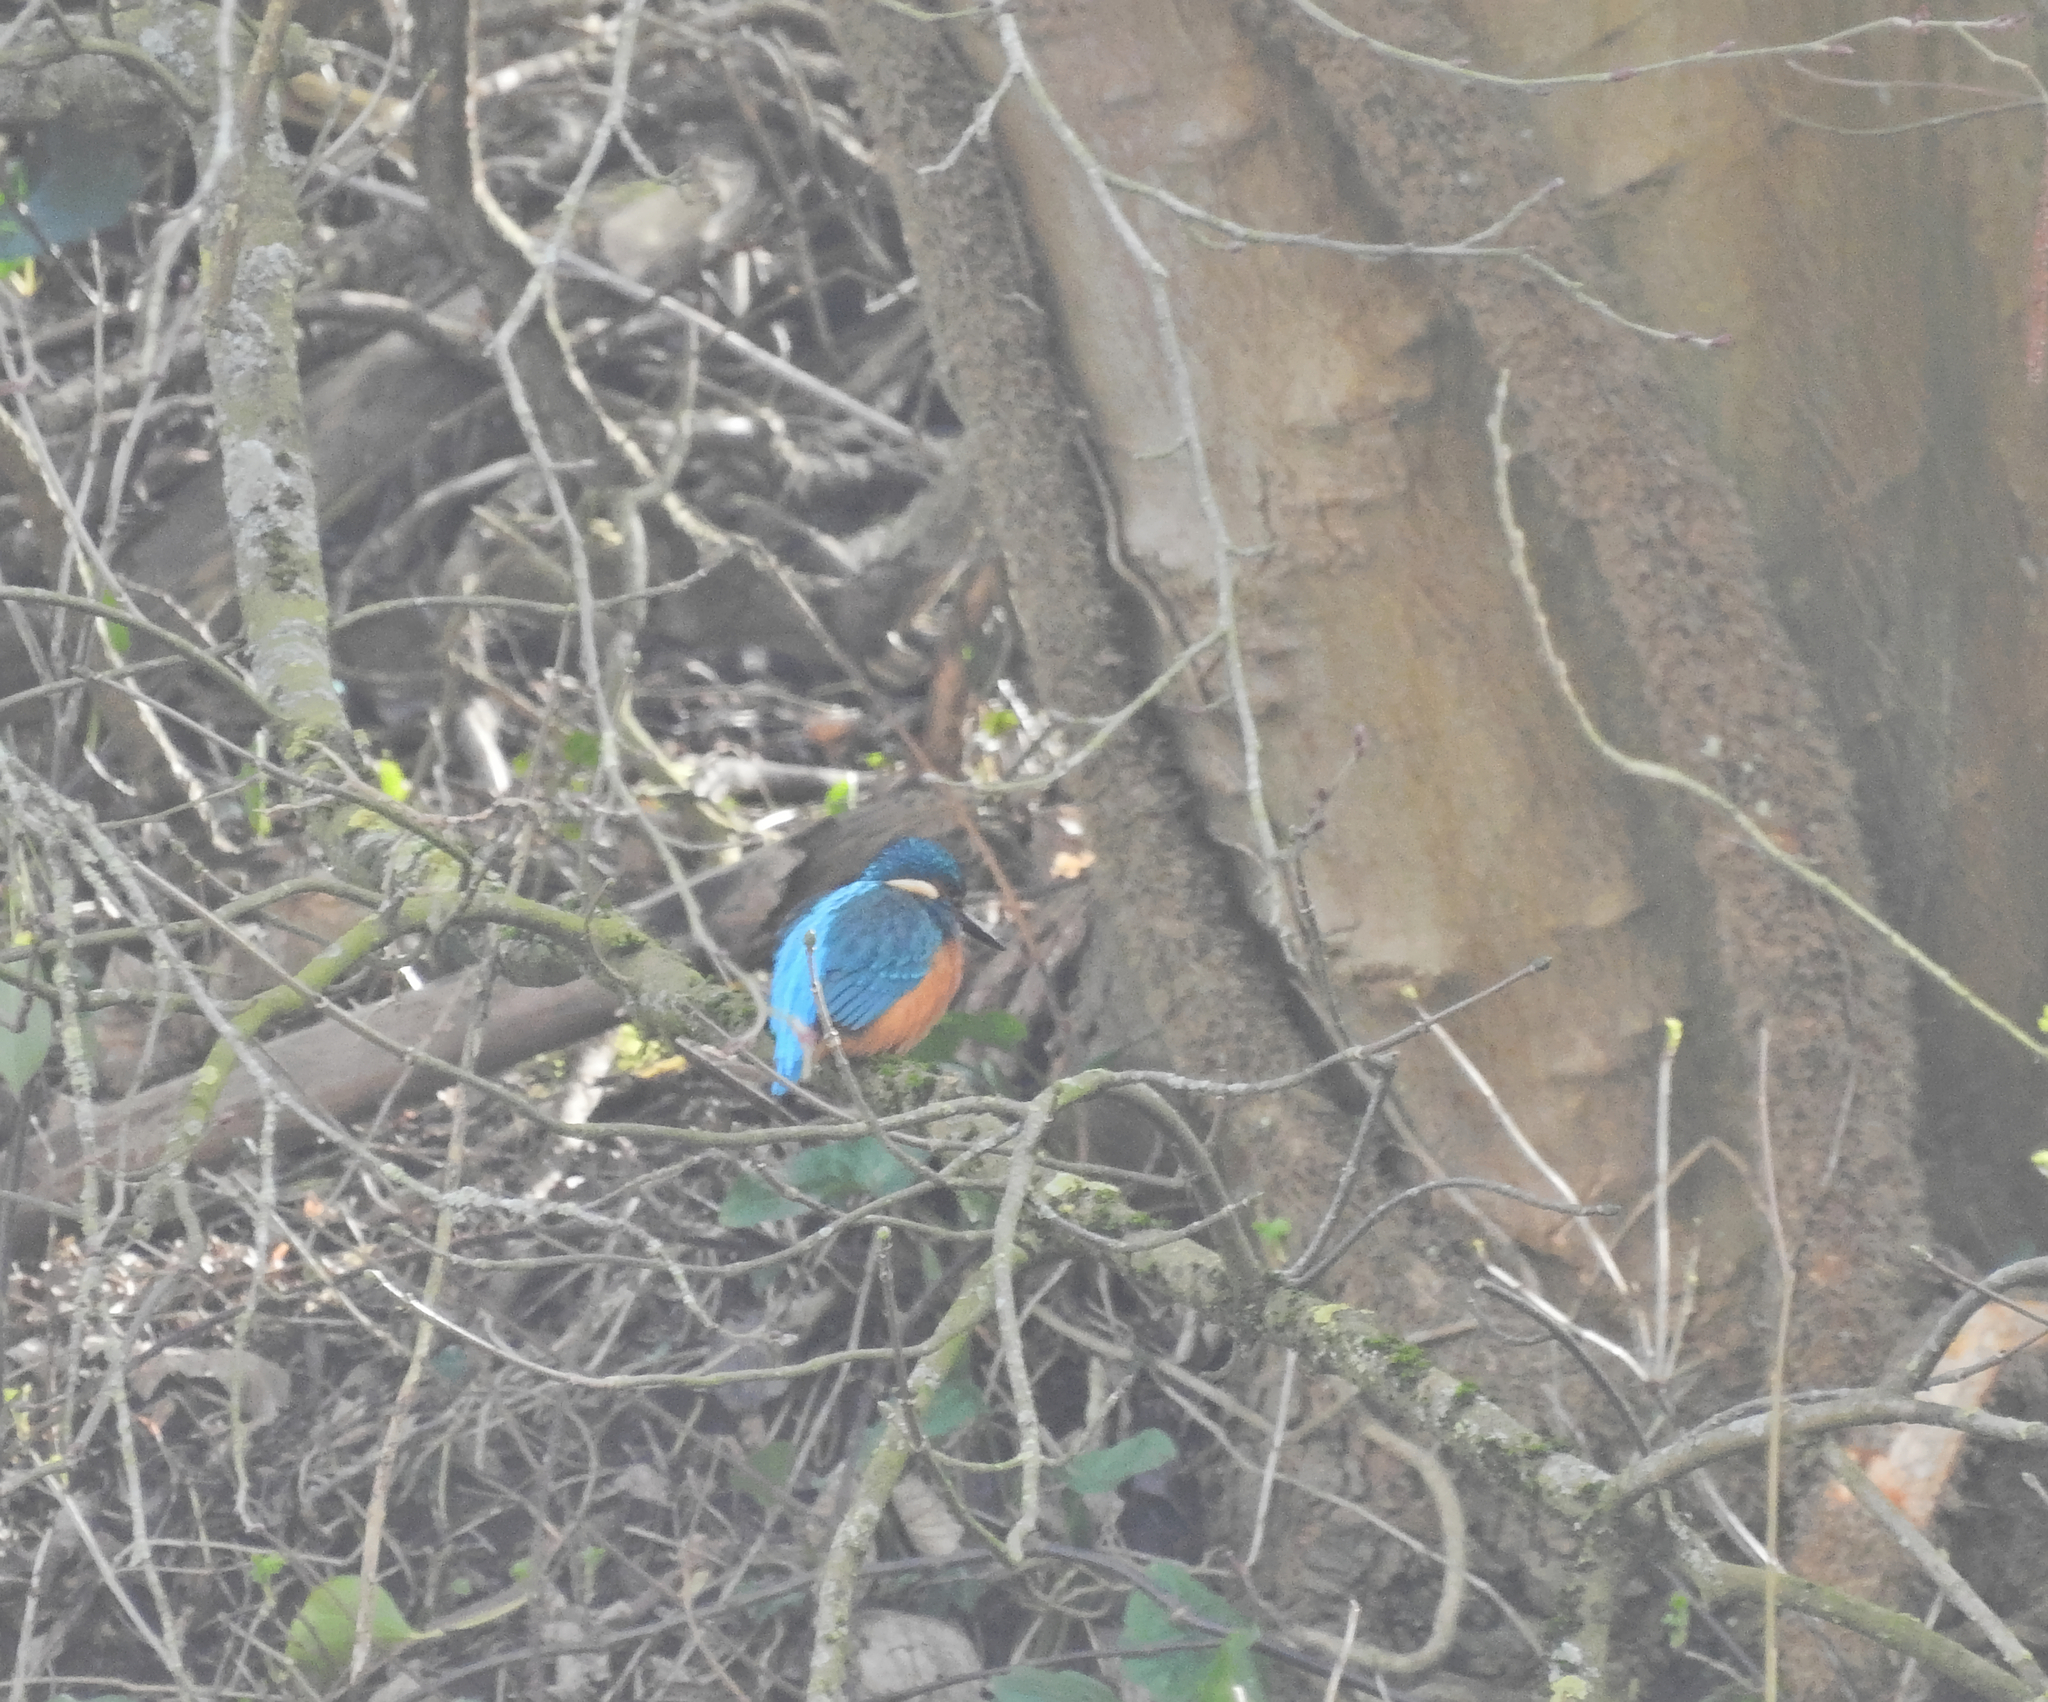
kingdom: Animalia
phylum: Chordata
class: Aves
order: Coraciiformes
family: Alcedinidae
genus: Alcedo
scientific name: Alcedo atthis
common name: Common kingfisher
